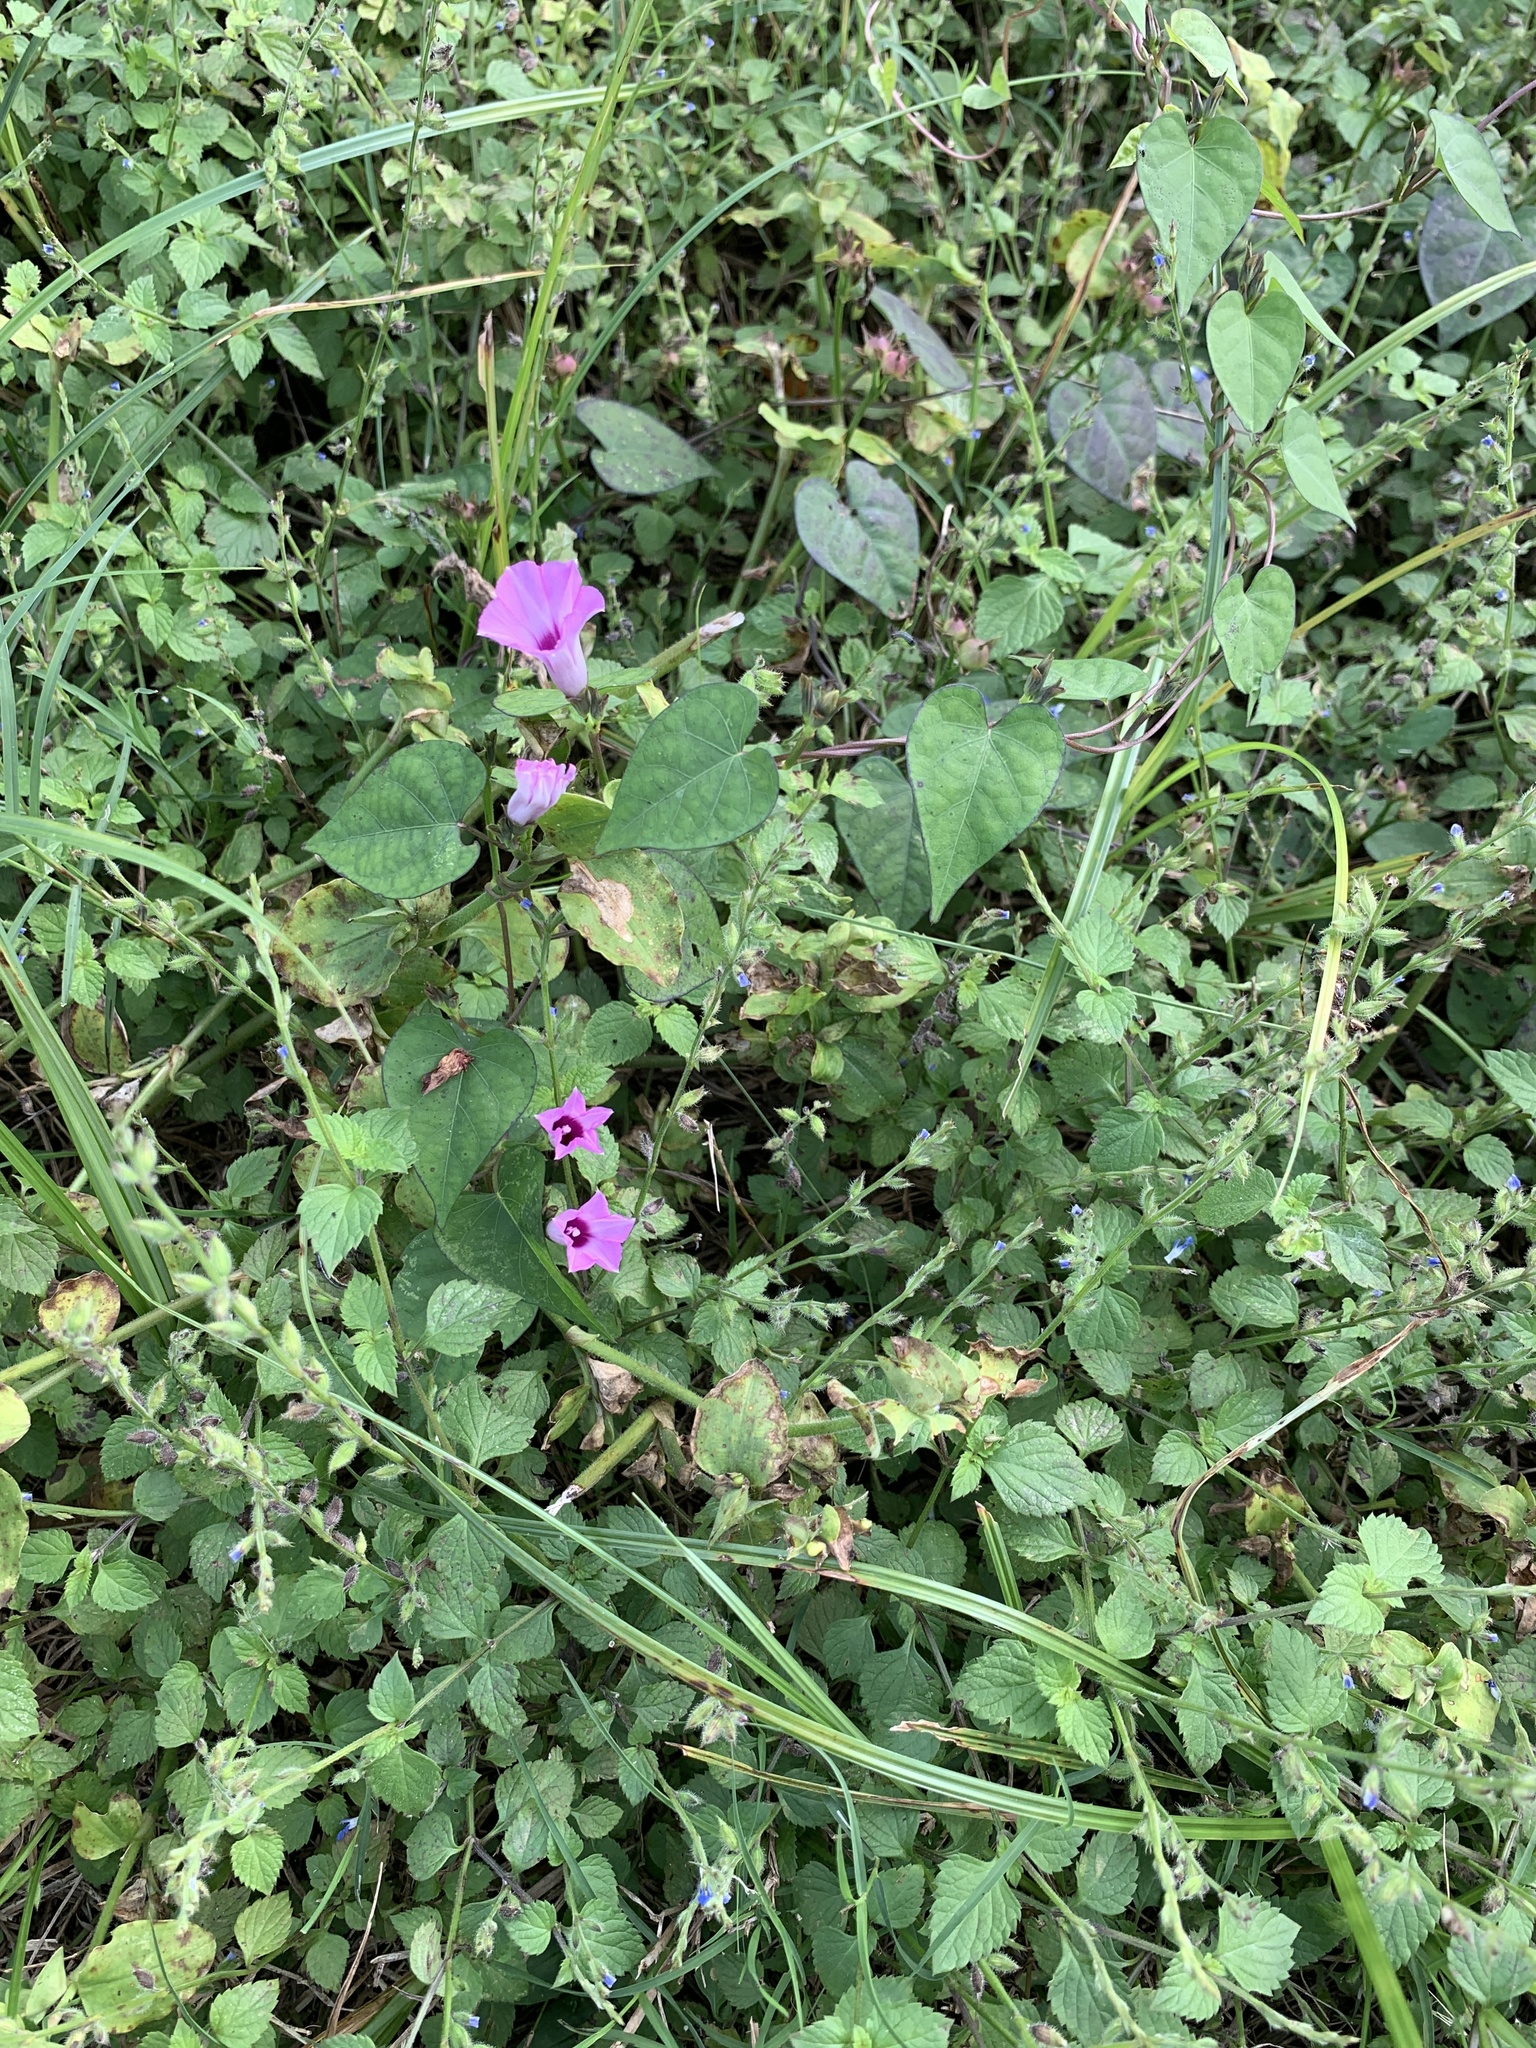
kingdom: Plantae
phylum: Tracheophyta
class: Magnoliopsida
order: Solanales
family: Convolvulaceae
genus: Ipomoea
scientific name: Ipomoea triloba
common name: Little-bell
